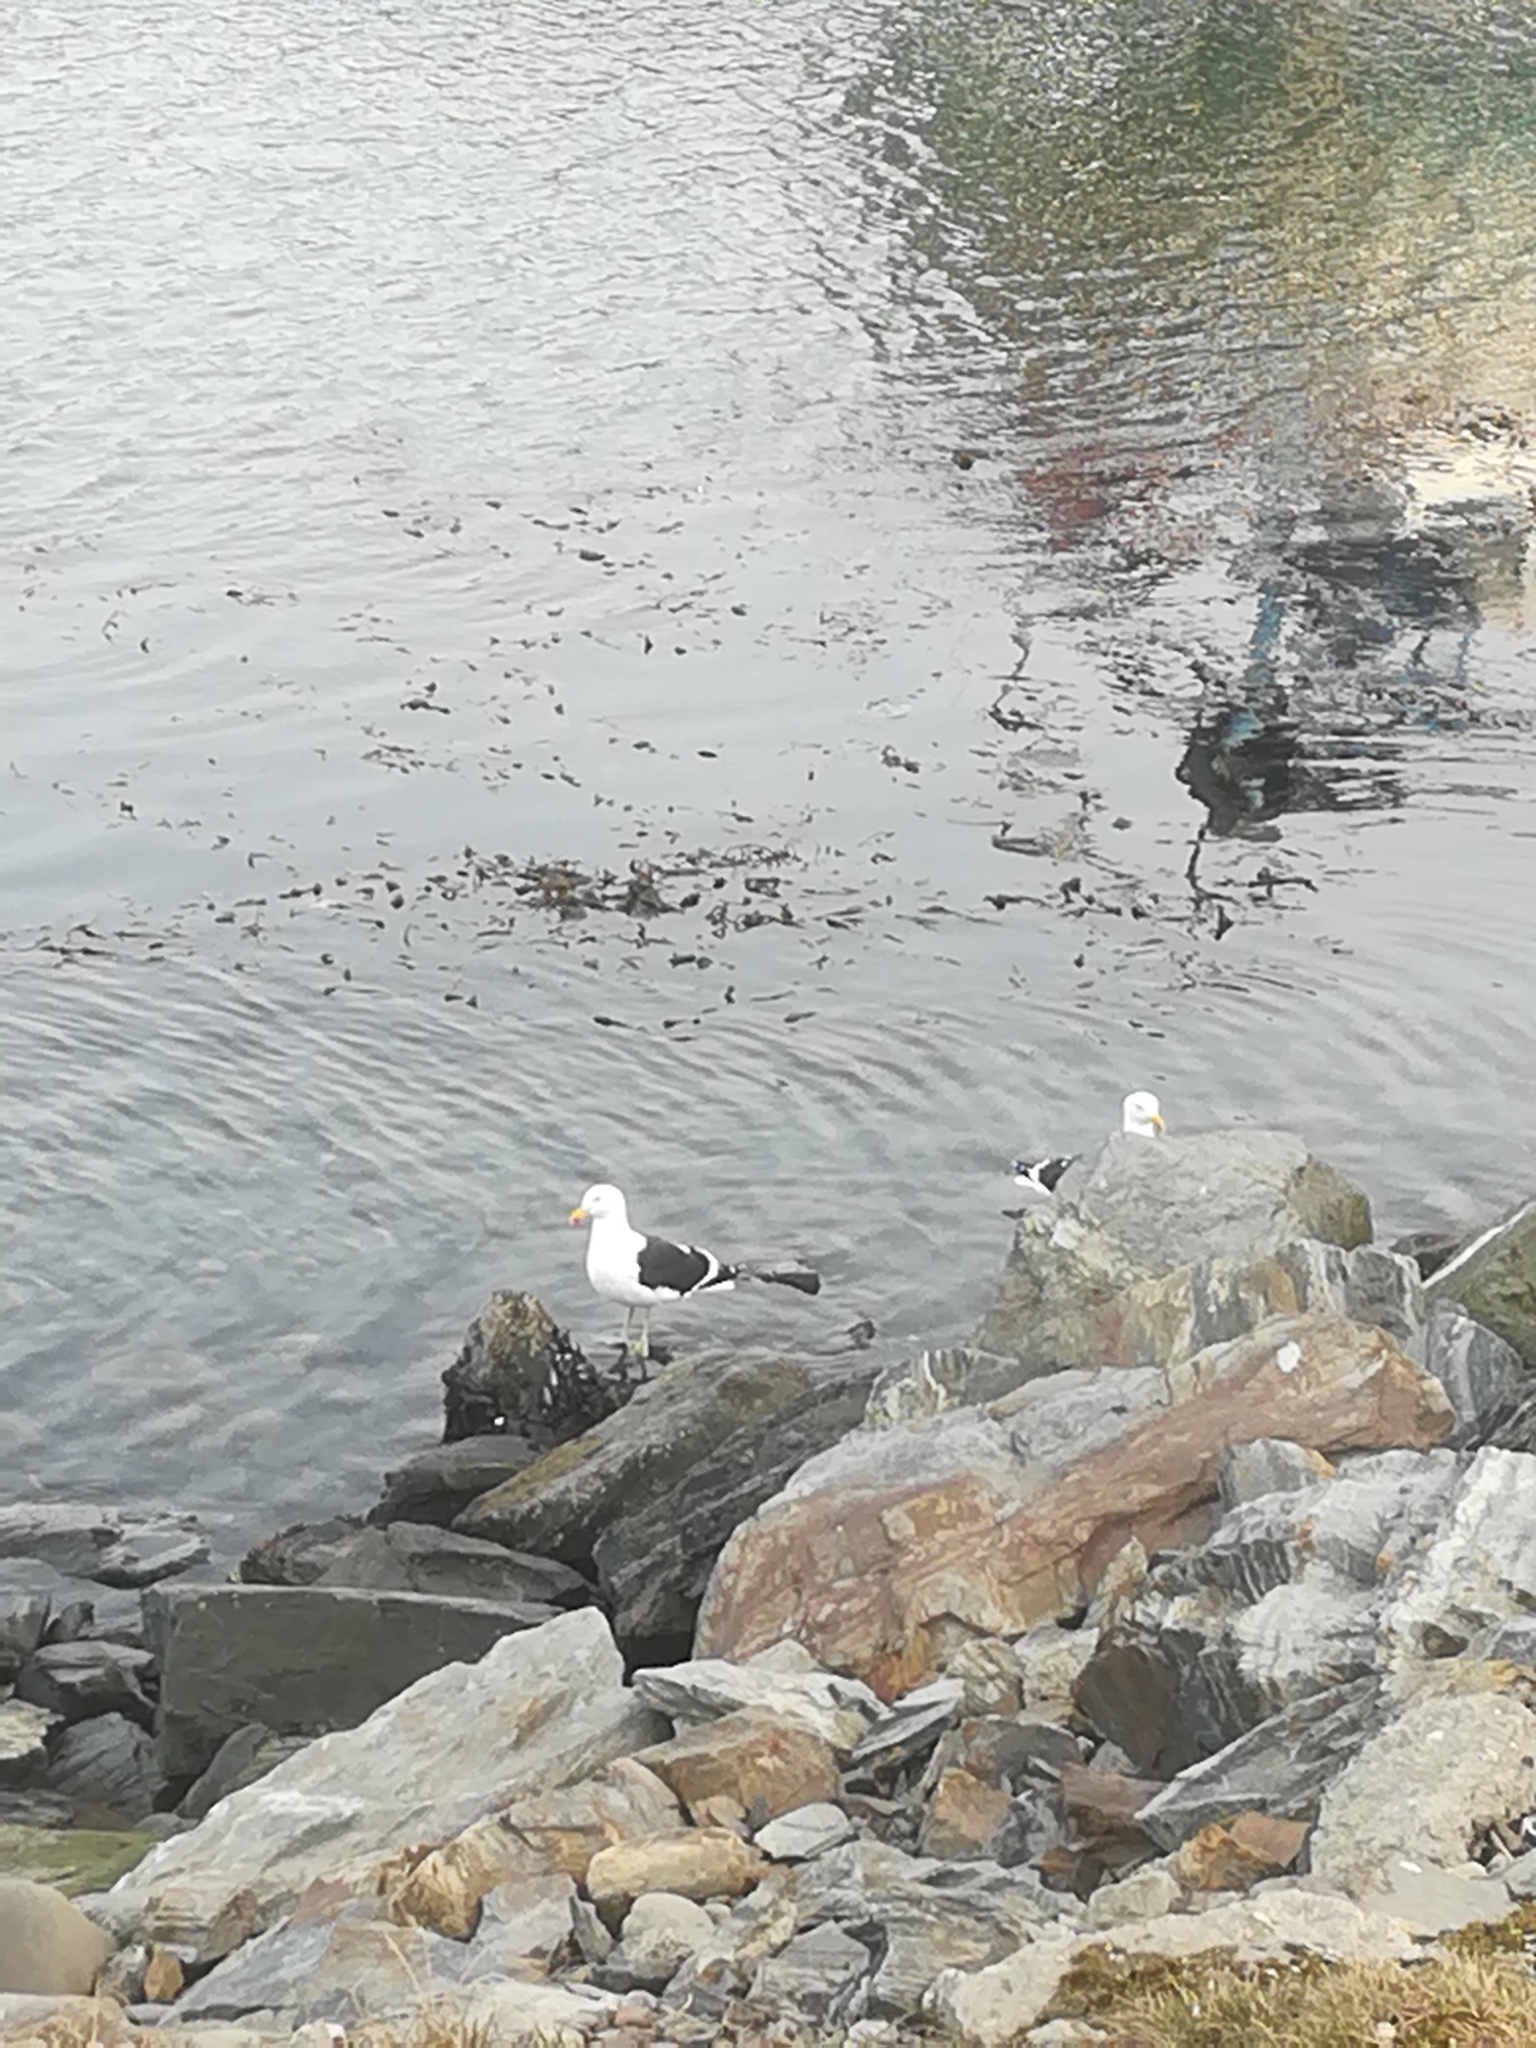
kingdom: Animalia
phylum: Chordata
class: Aves
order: Charadriiformes
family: Laridae
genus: Larus
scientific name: Larus dominicanus
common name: Kelp gull
